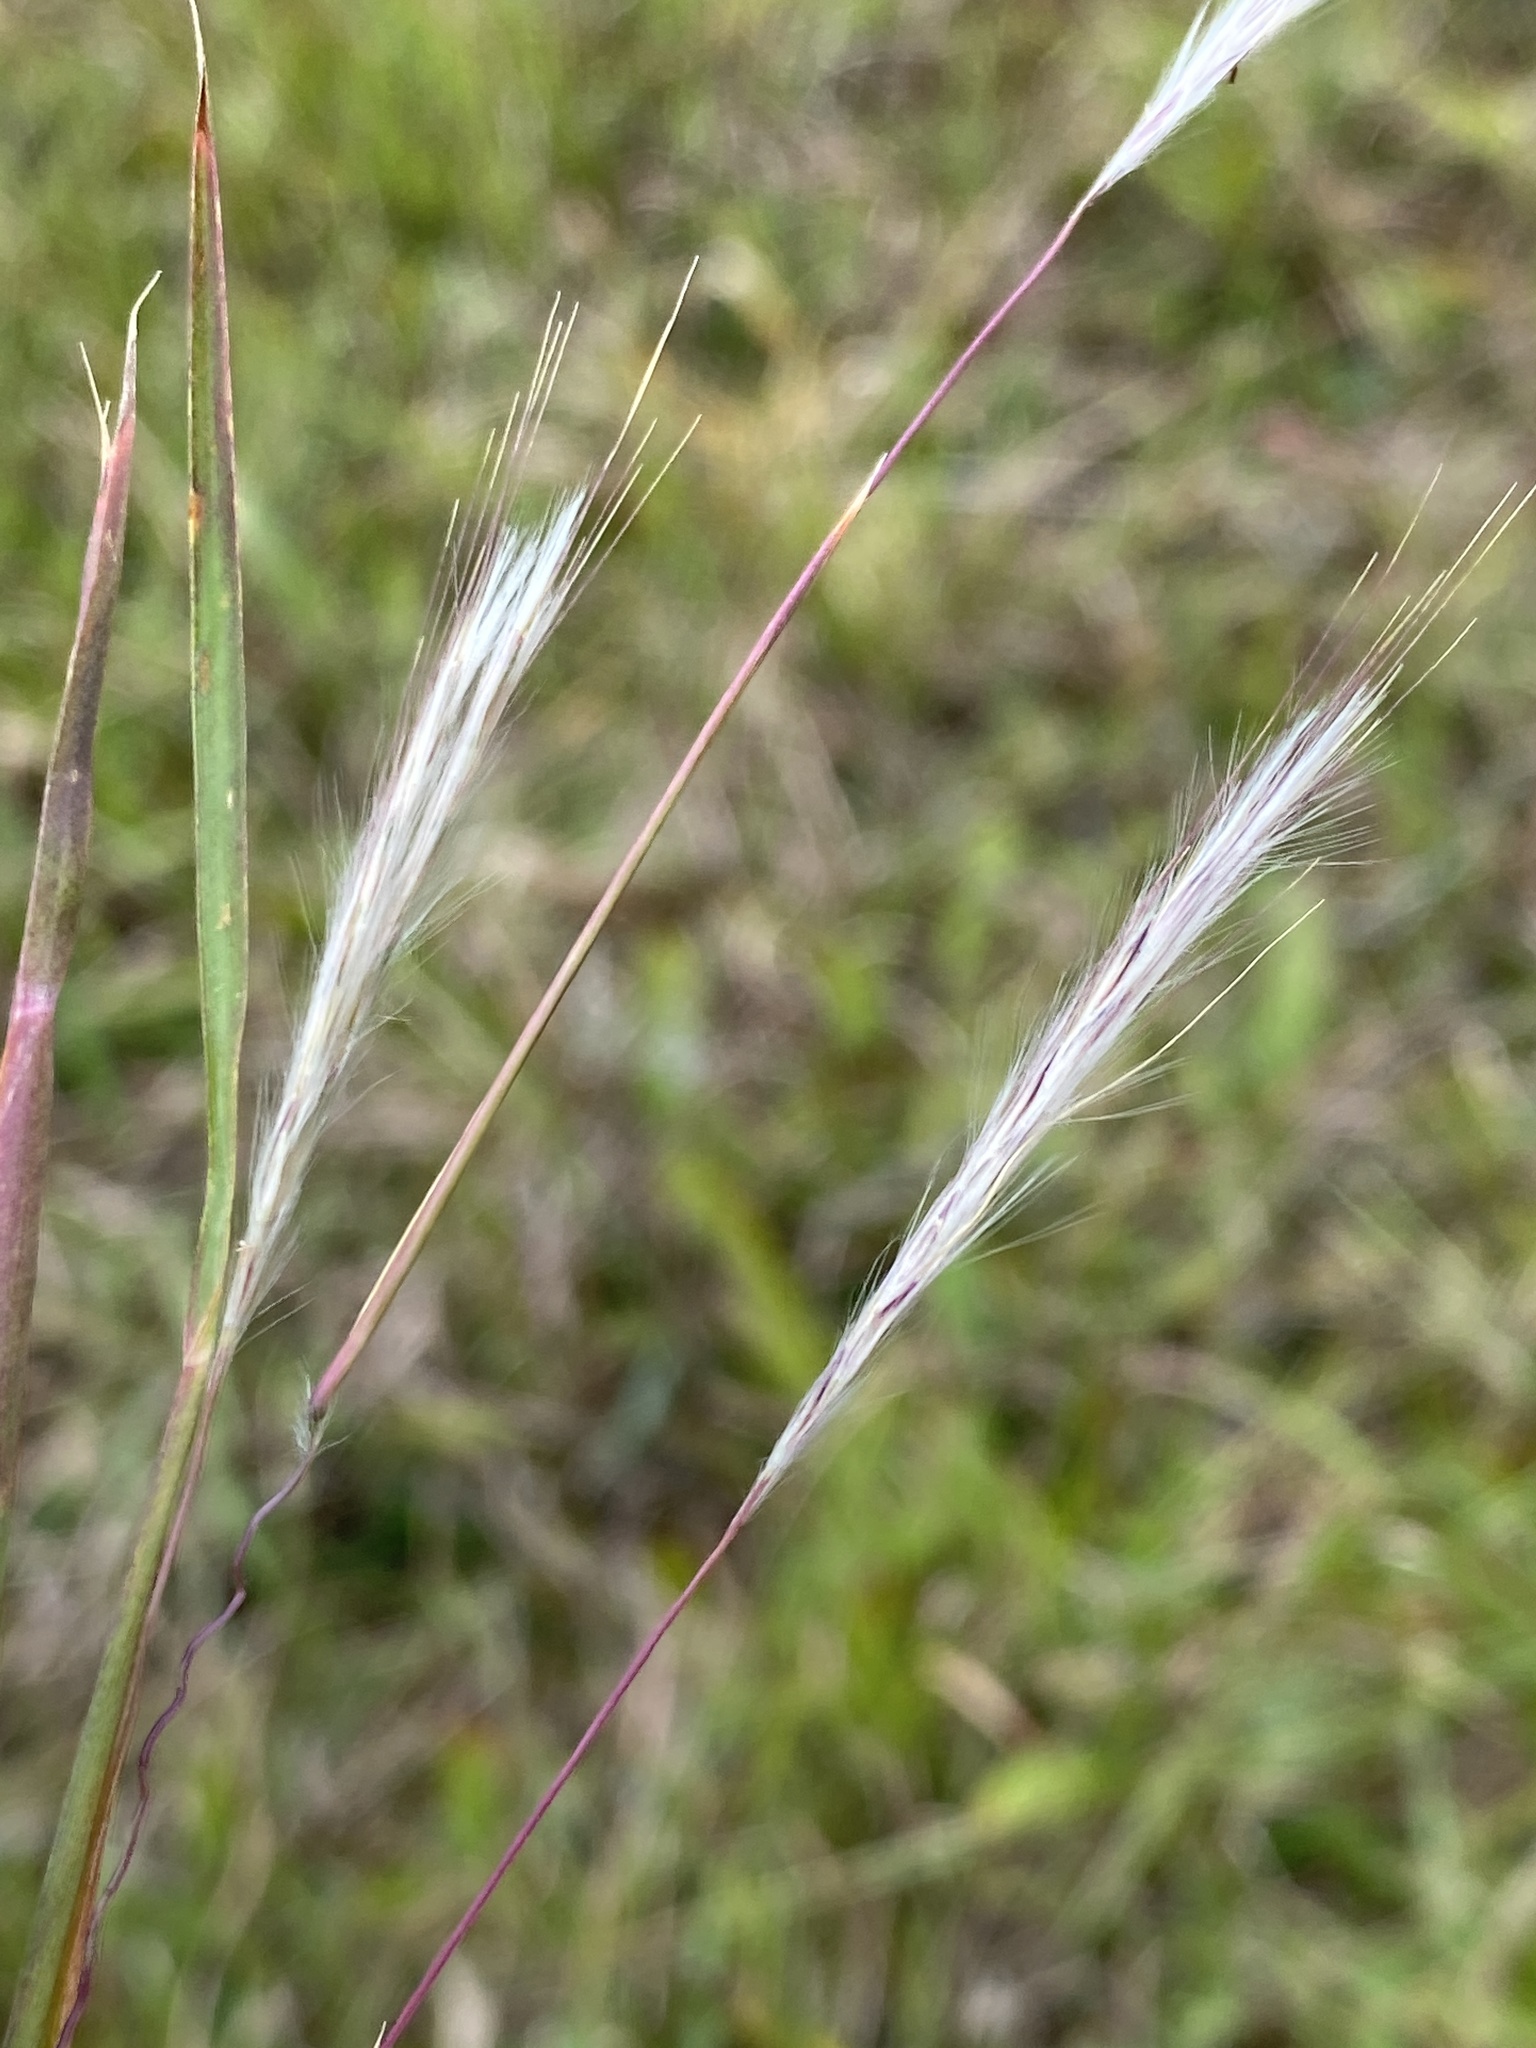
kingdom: Plantae
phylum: Tracheophyta
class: Liliopsida
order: Poales
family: Poaceae
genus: Andropogon
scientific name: Andropogon ternarius
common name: Split bluestem
